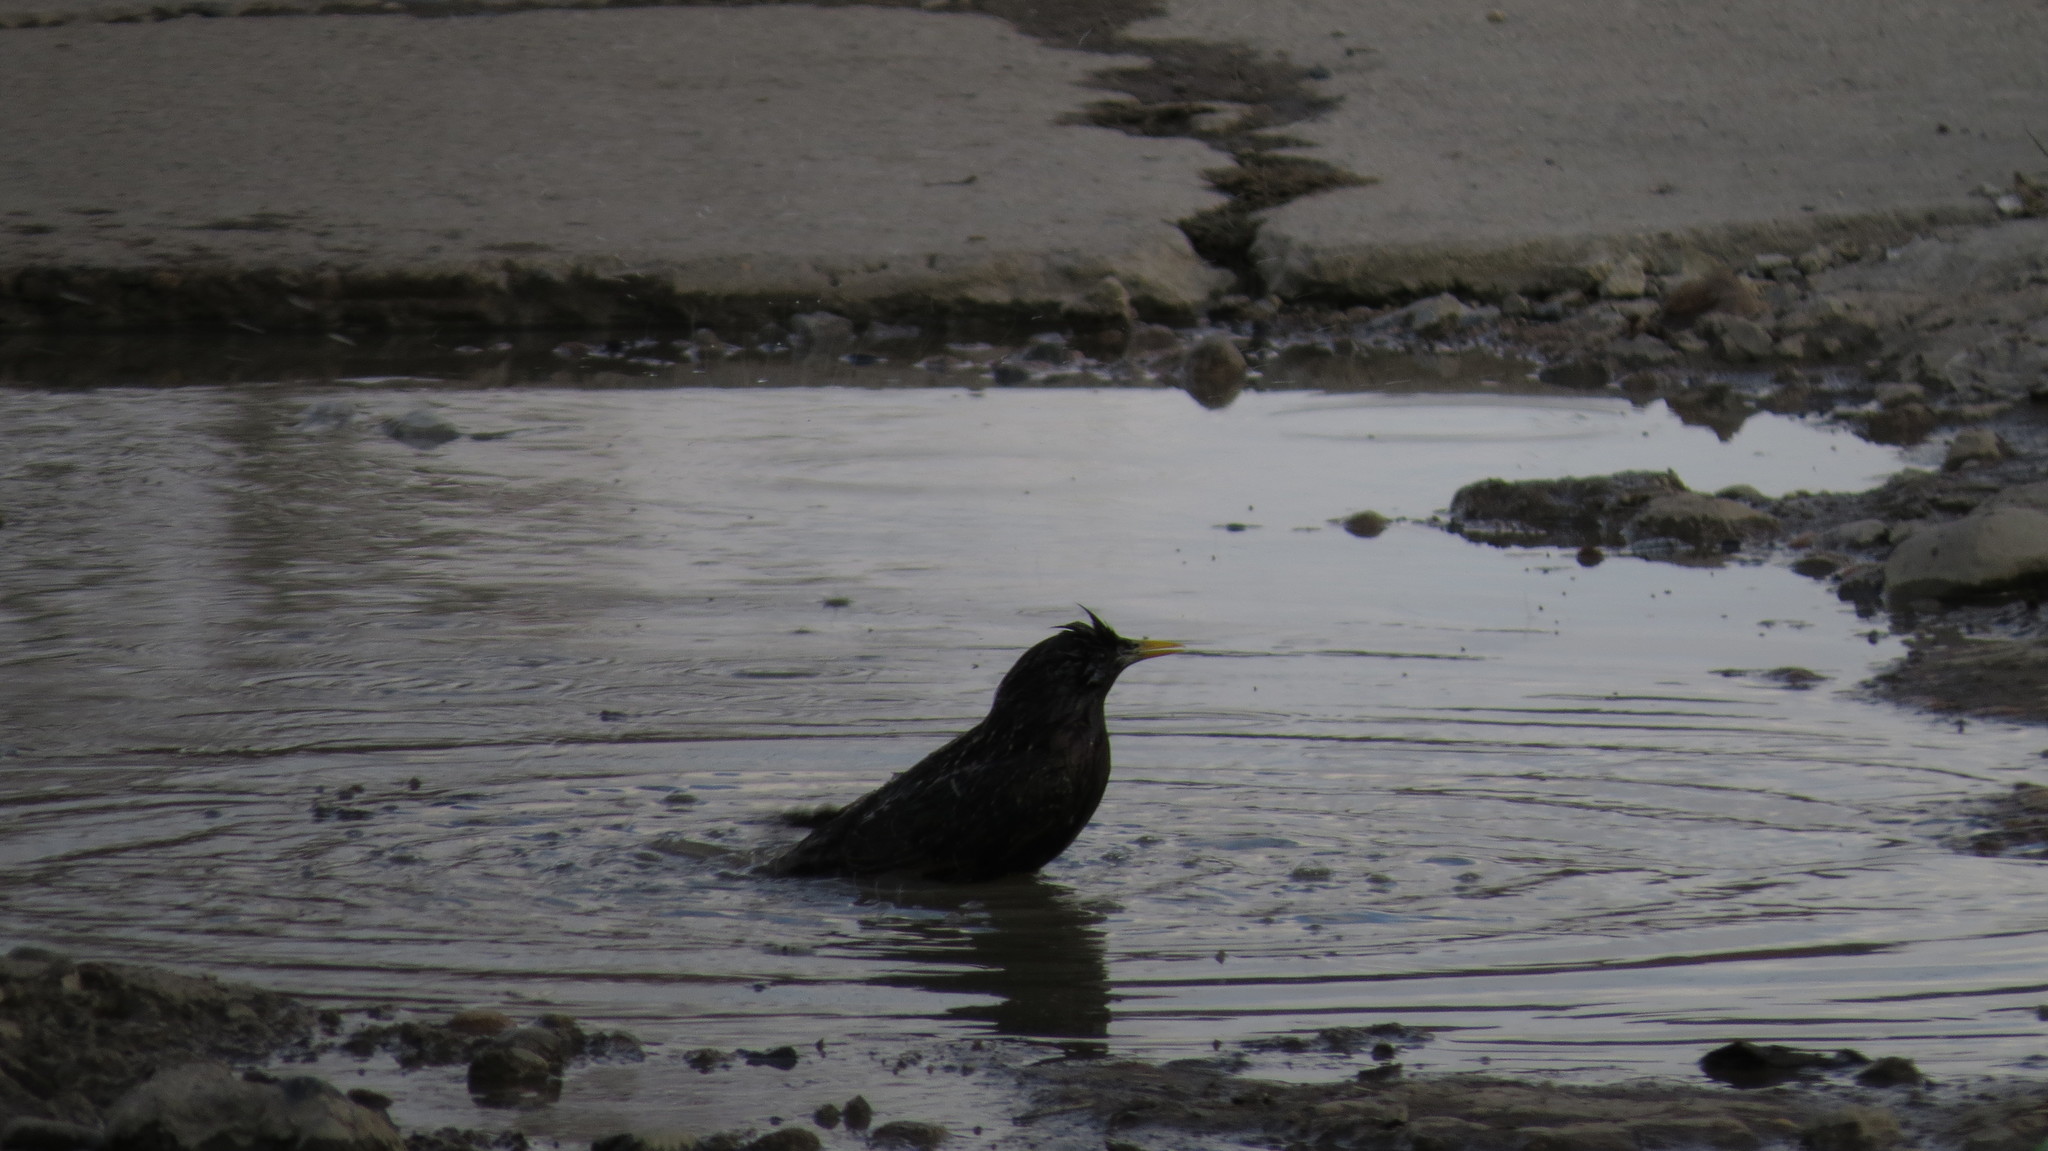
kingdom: Animalia
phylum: Chordata
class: Aves
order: Passeriformes
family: Sturnidae
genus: Sturnus
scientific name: Sturnus vulgaris
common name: Common starling
